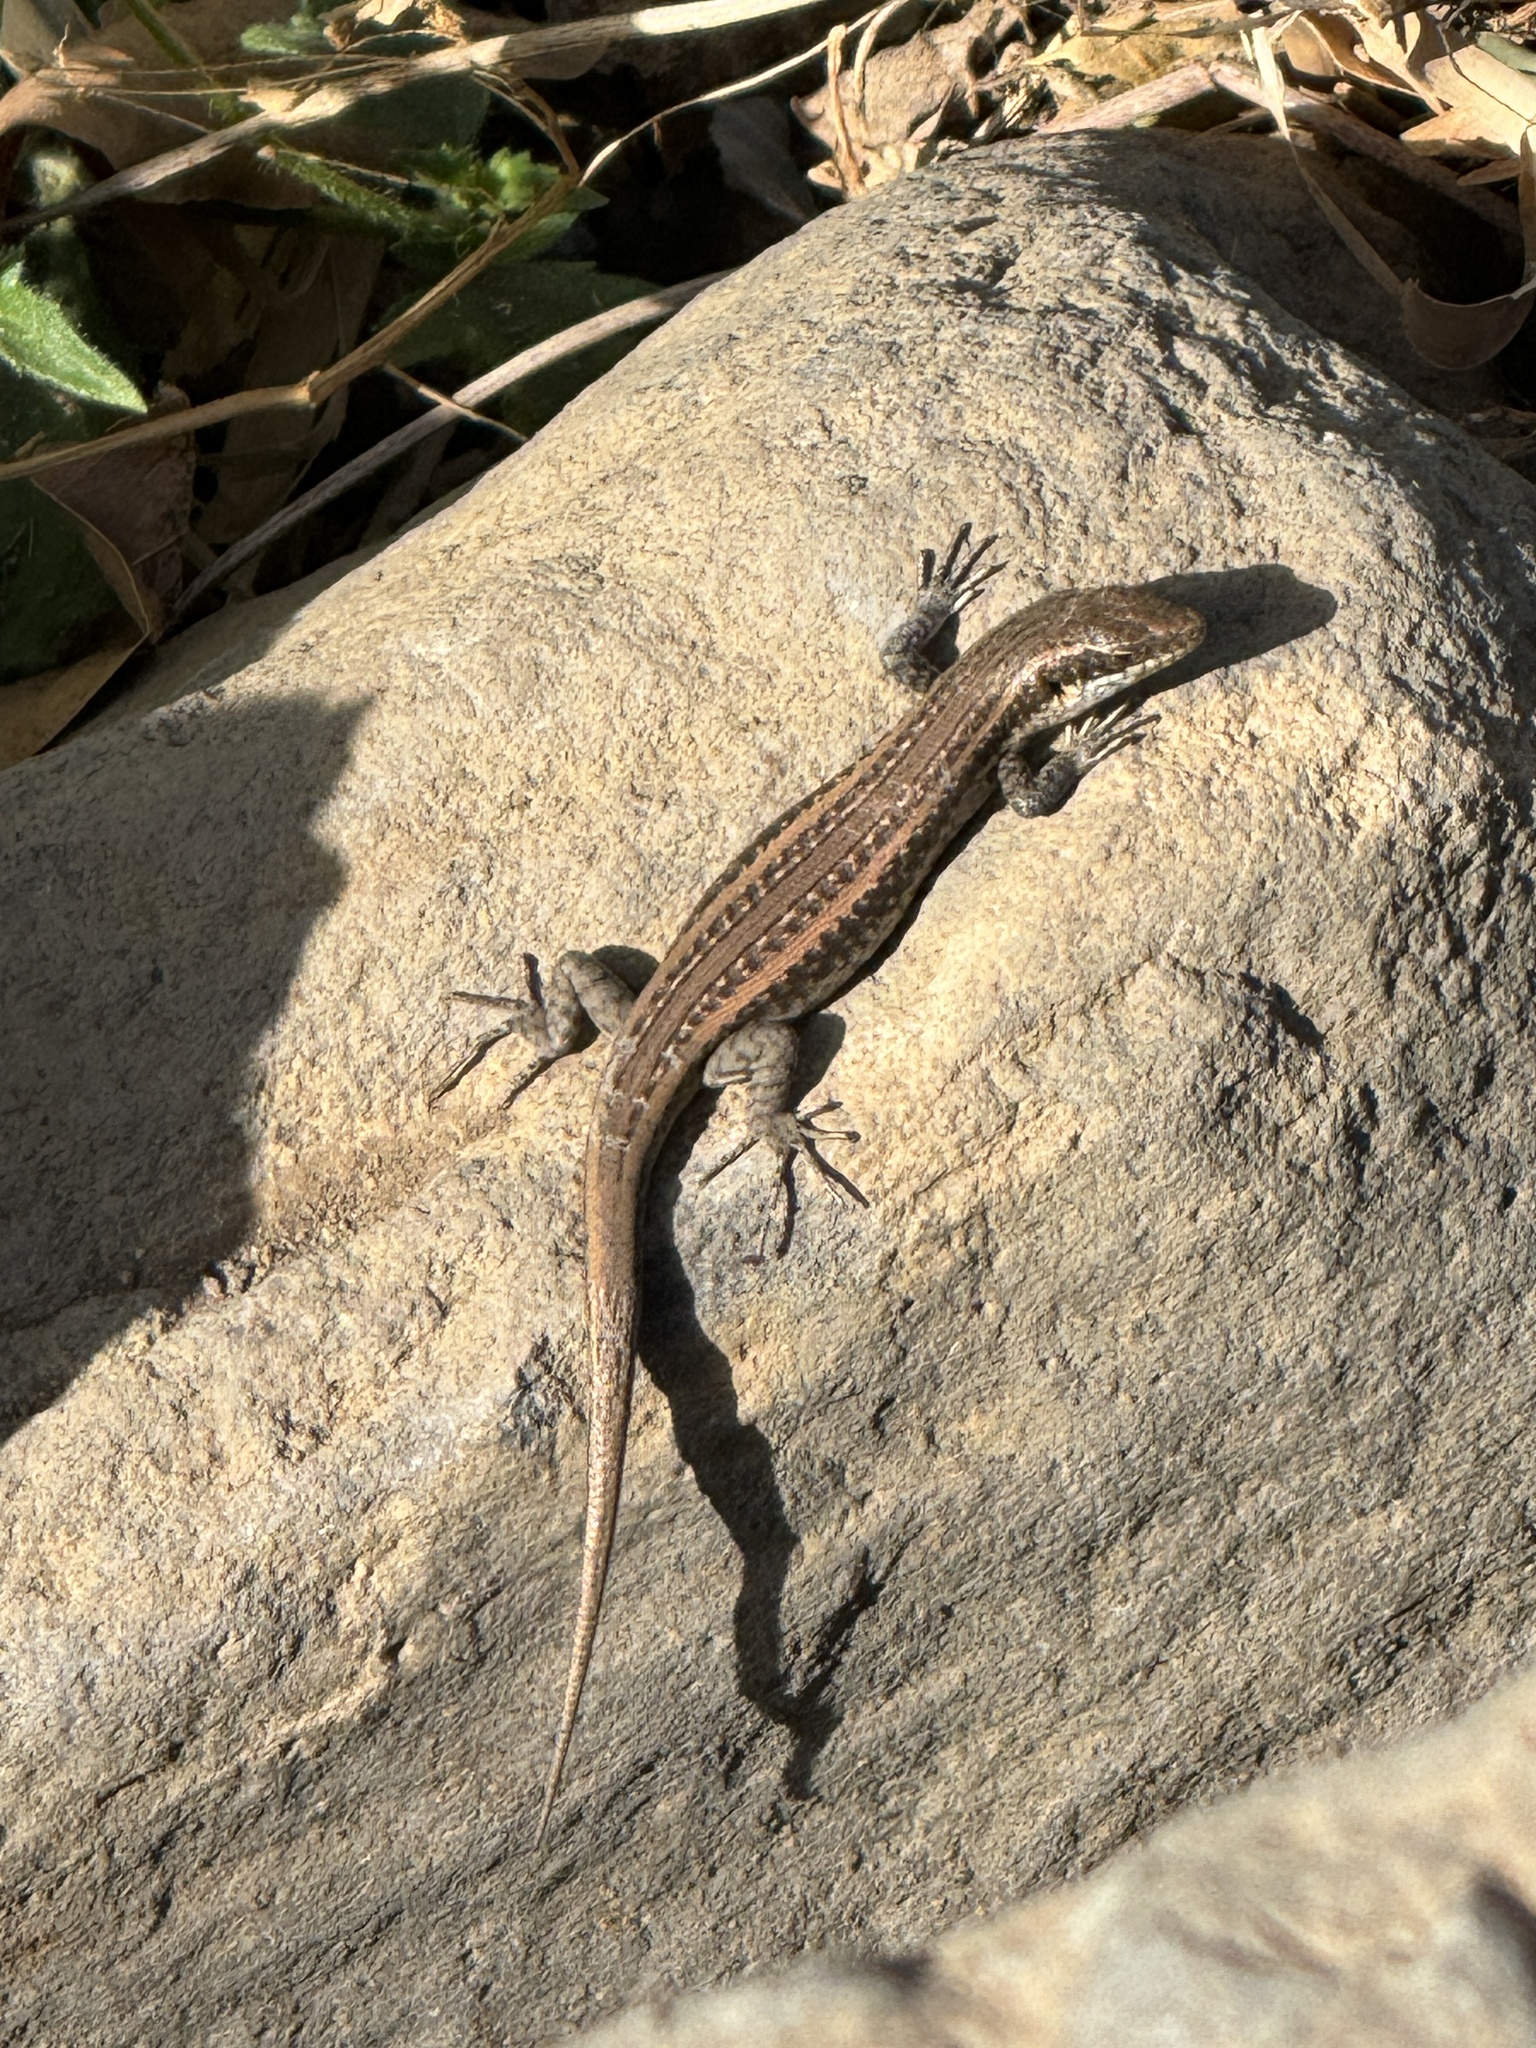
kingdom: Animalia
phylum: Chordata
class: Squamata
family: Scincidae
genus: Chioninia
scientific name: Chioninia fogoensis
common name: Fogo's mabuya
